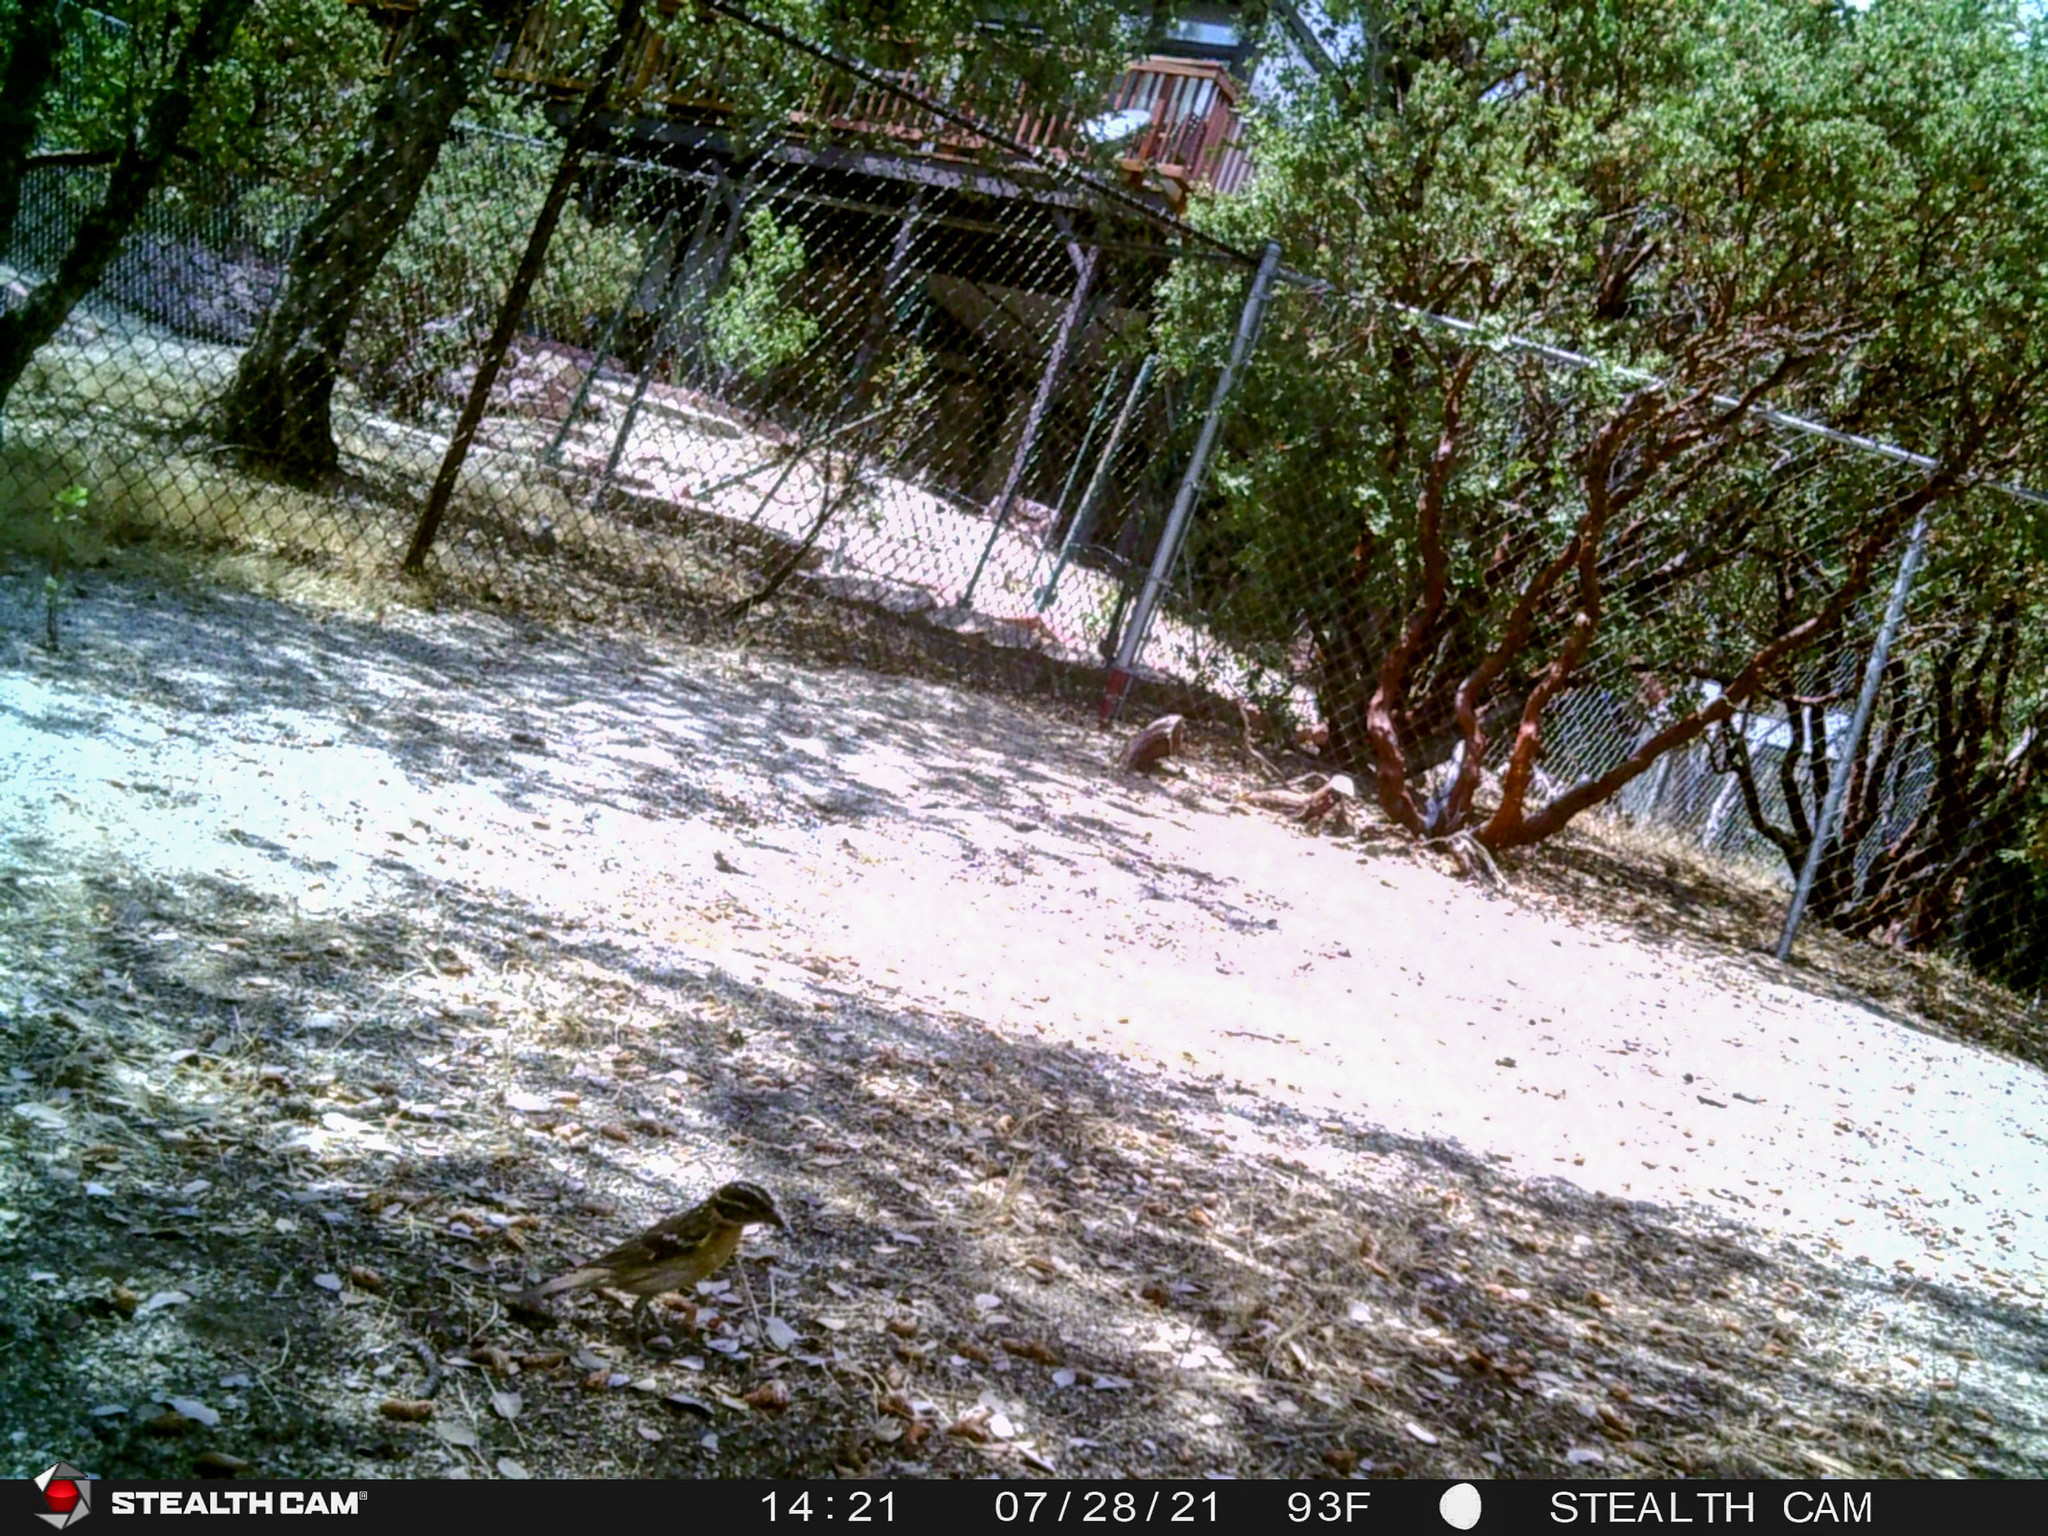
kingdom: Animalia
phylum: Chordata
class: Aves
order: Passeriformes
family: Cardinalidae
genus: Pheucticus
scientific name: Pheucticus melanocephalus
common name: Black-headed grosbeak
